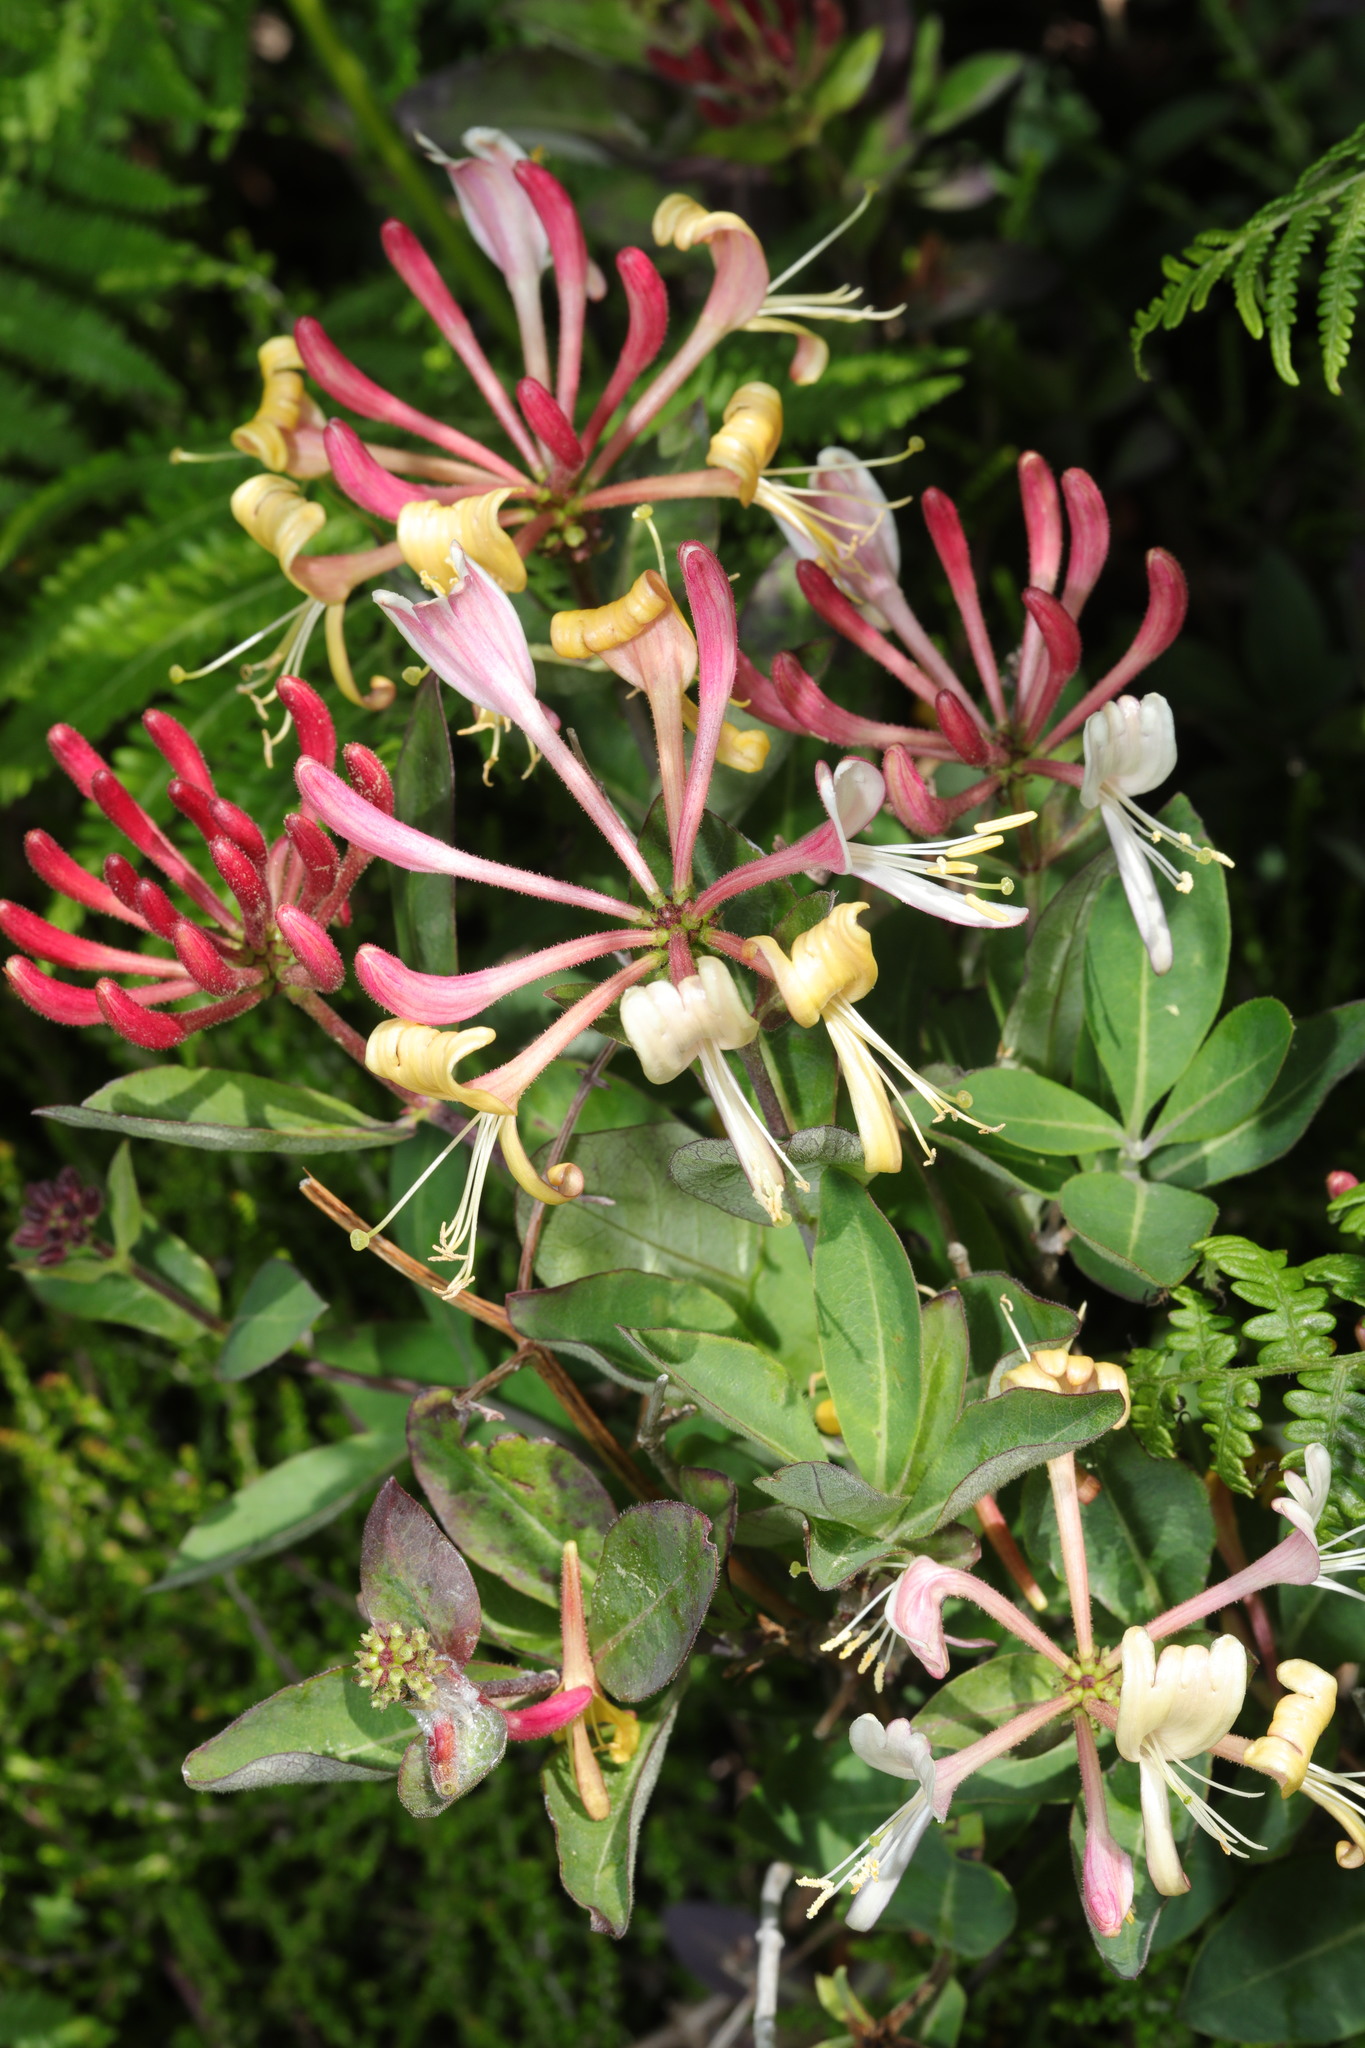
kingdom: Plantae
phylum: Tracheophyta
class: Magnoliopsida
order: Dipsacales
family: Caprifoliaceae
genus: Lonicera
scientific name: Lonicera periclymenum
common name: European honeysuckle
